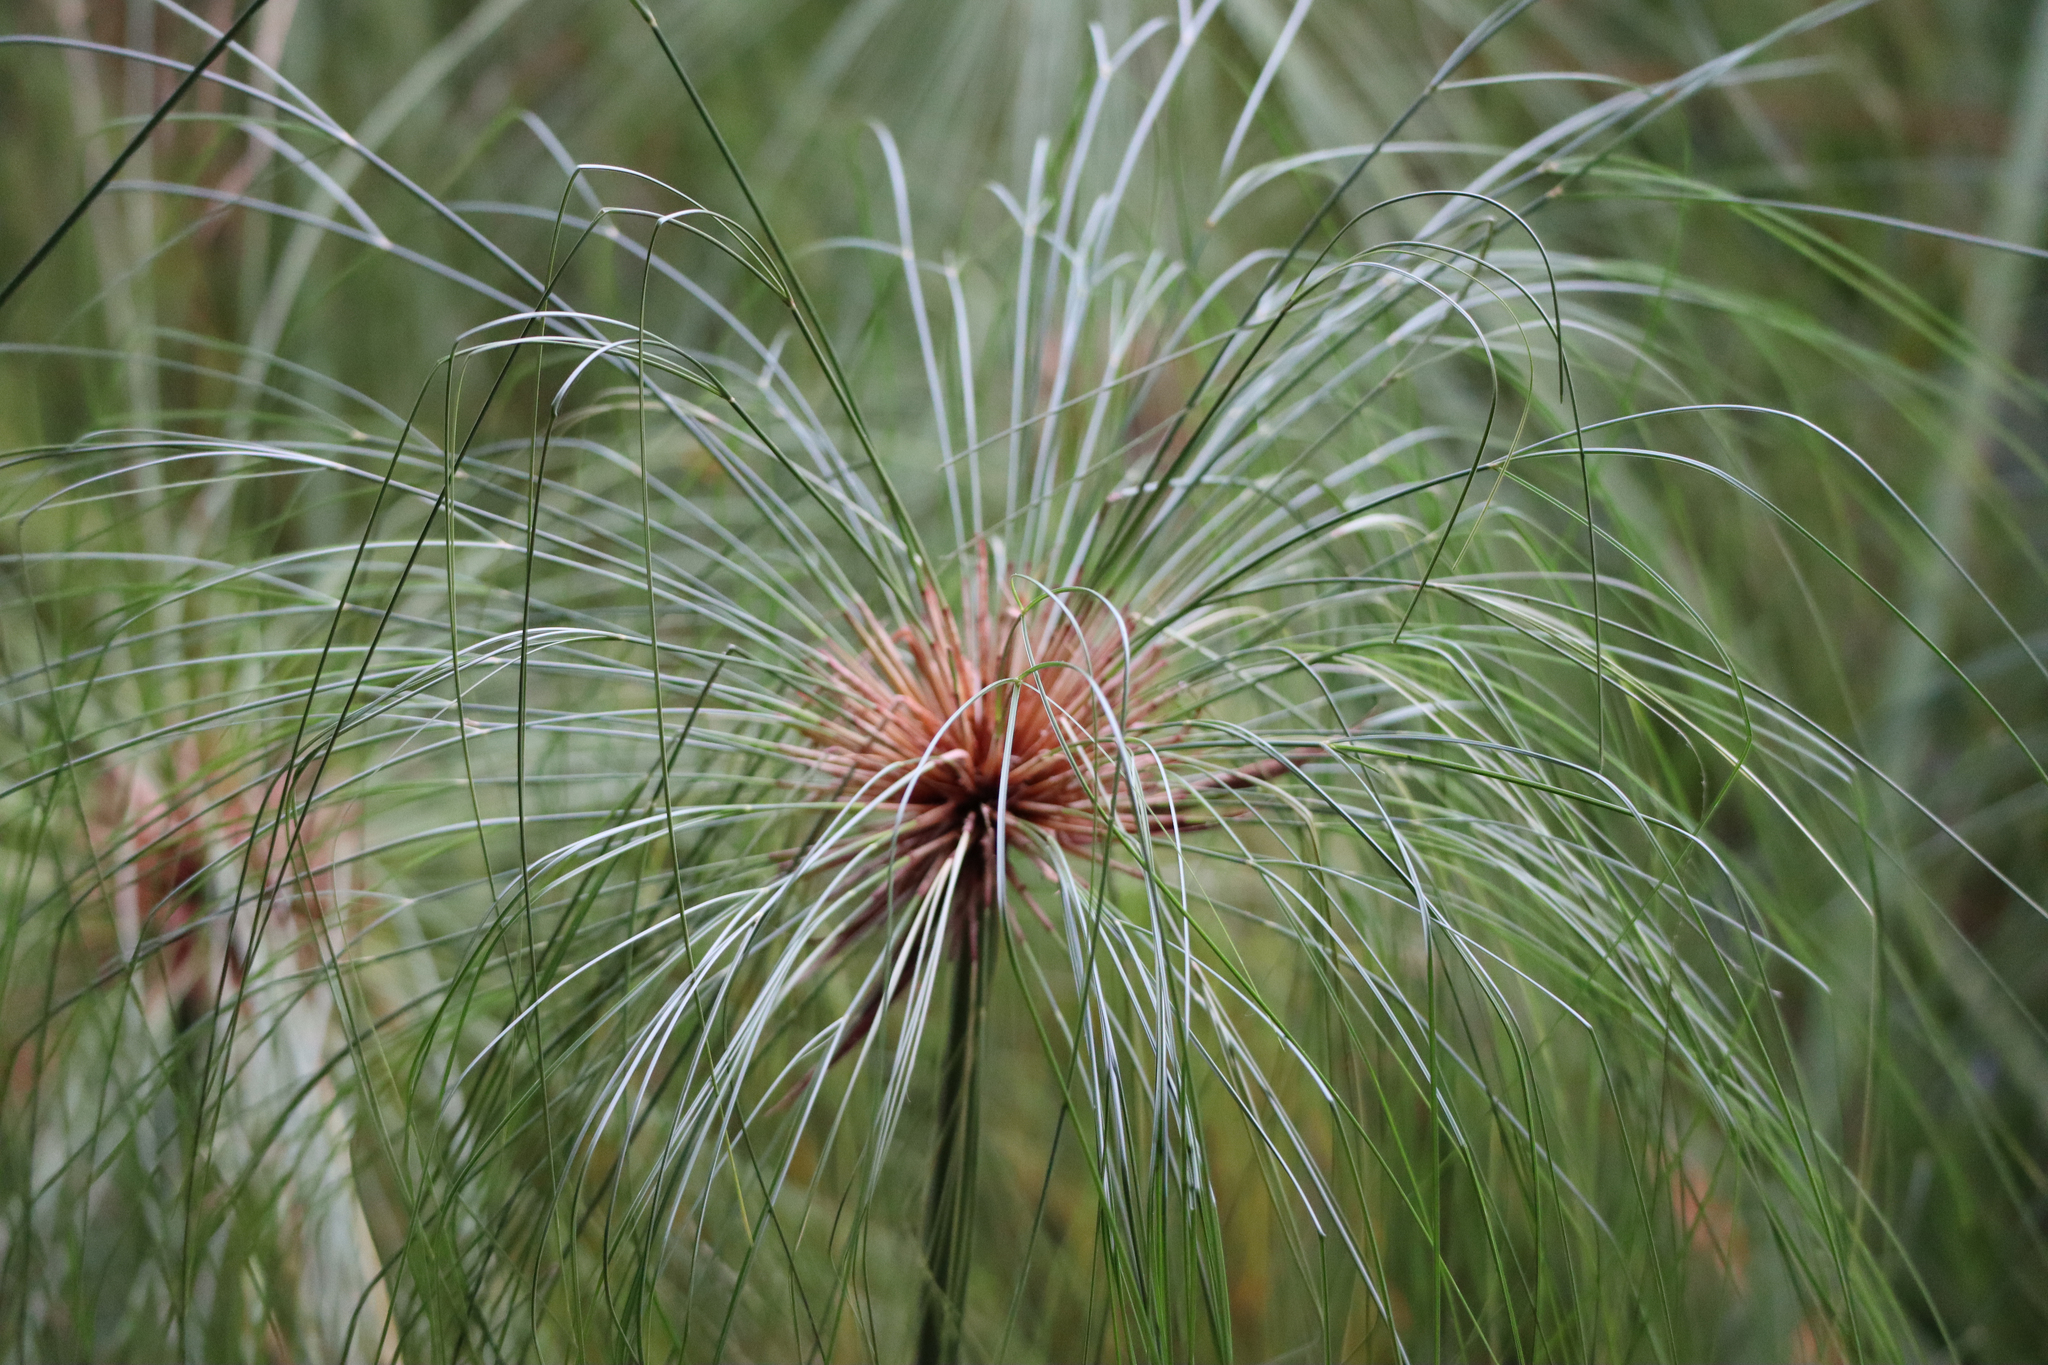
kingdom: Plantae
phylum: Tracheophyta
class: Liliopsida
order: Poales
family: Cyperaceae
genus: Cyperus
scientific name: Cyperus papyrus
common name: Papyrus
